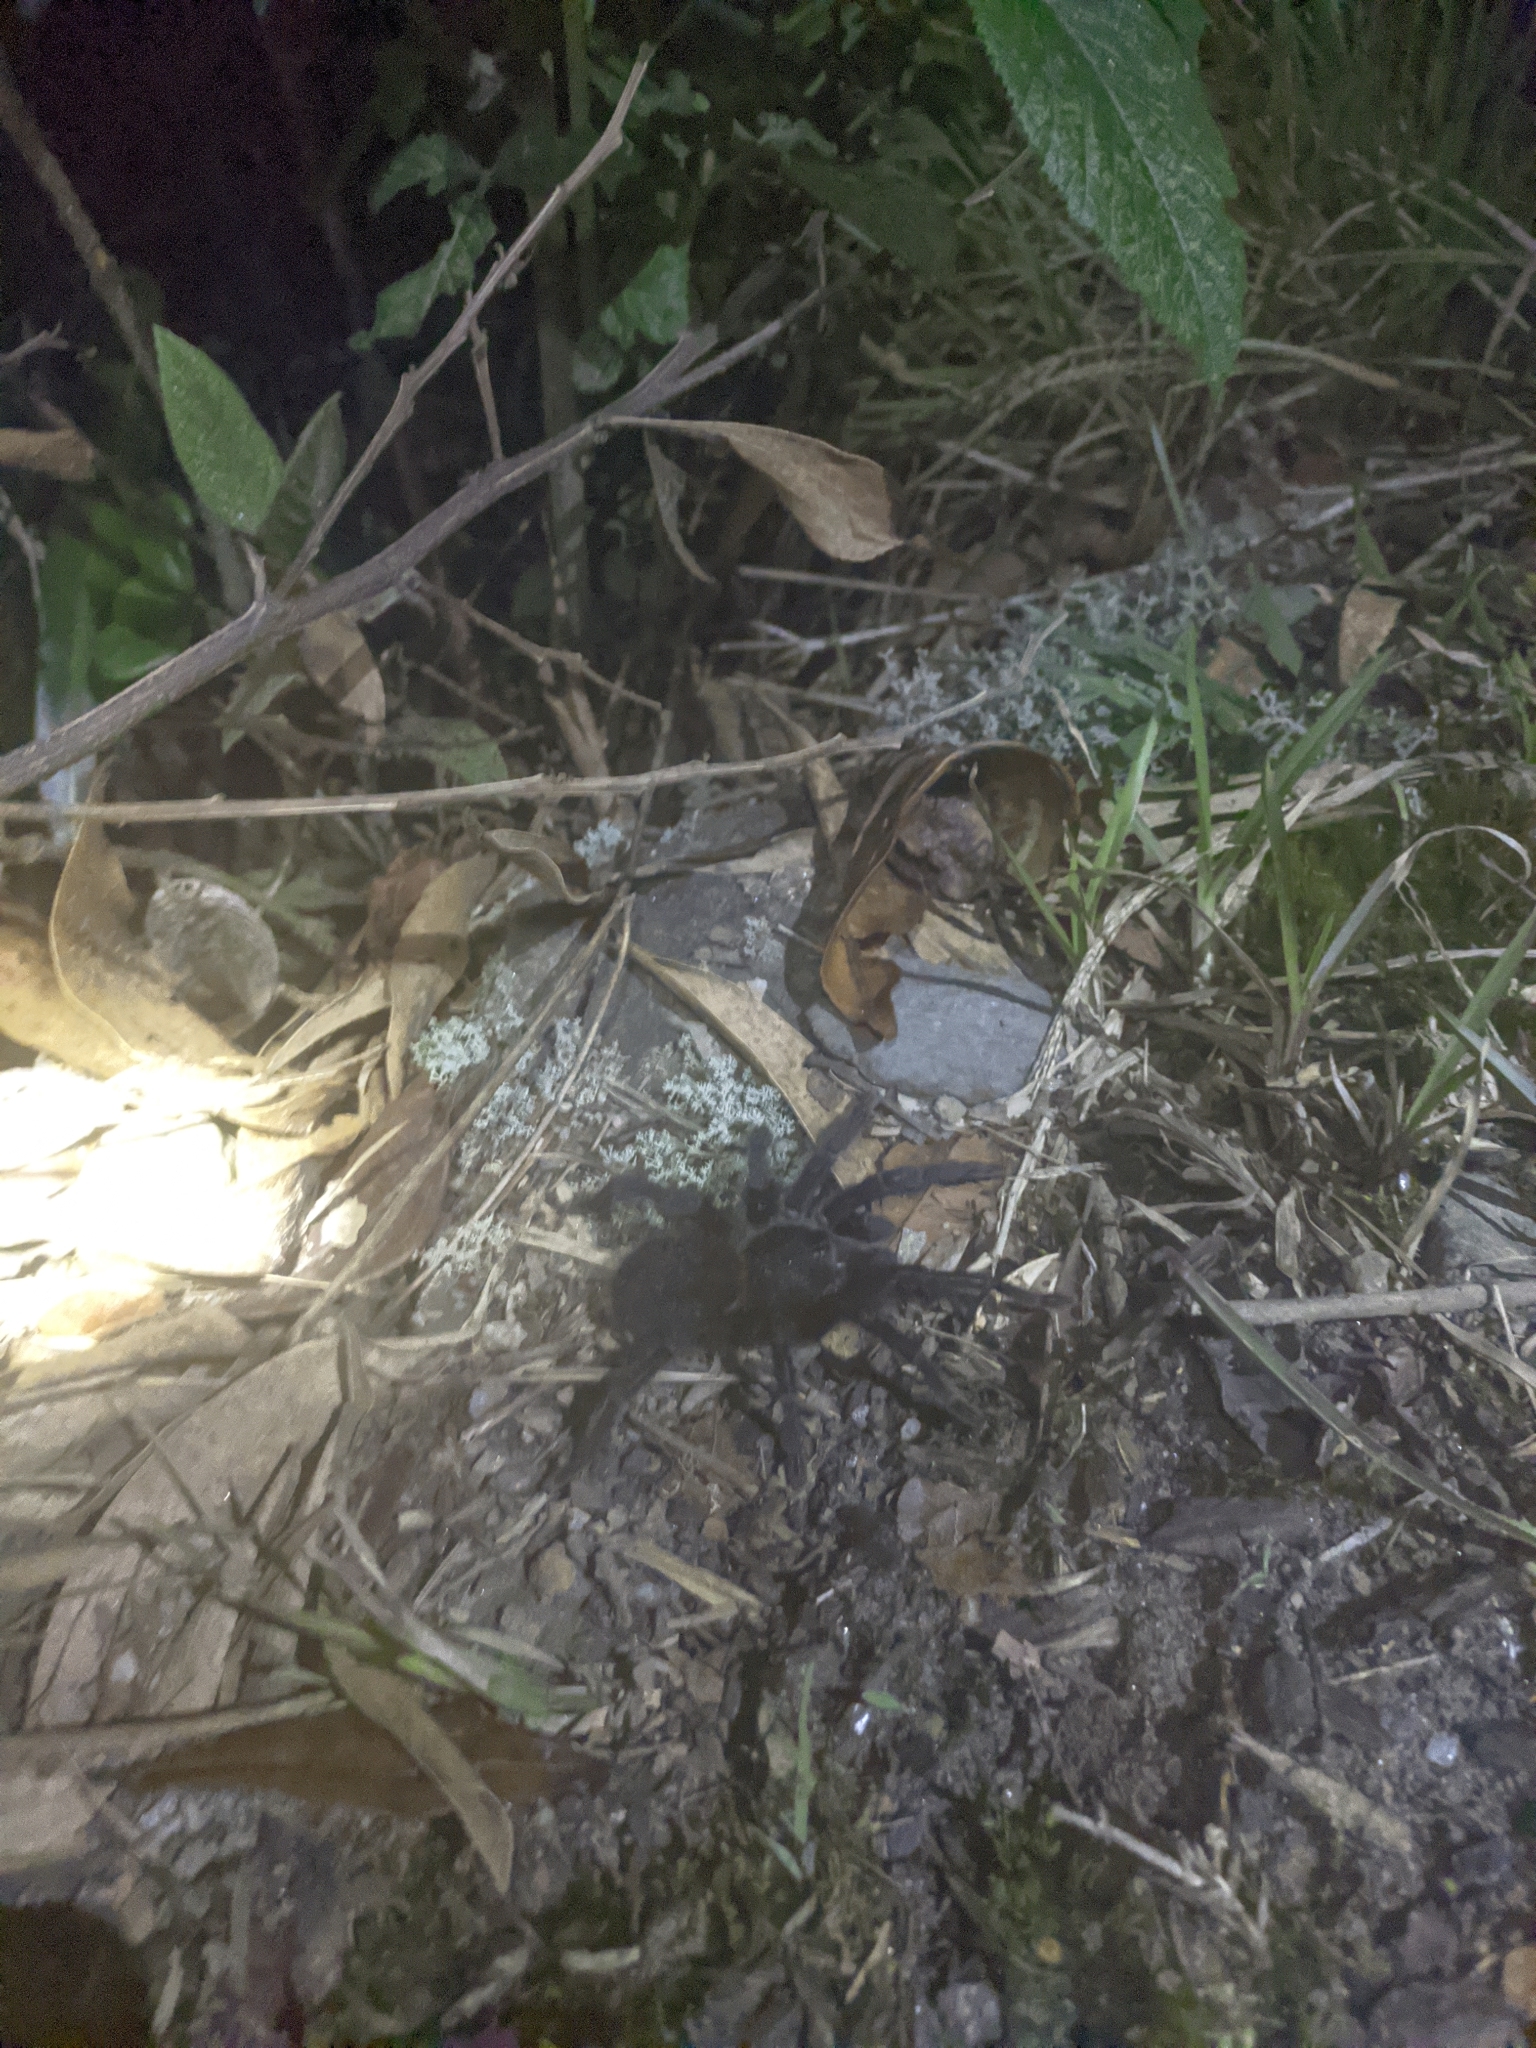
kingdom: Animalia
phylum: Arthropoda
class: Arachnida
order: Araneae
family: Theraphosidae
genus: Kankuamo
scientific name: Kankuamo marquezi
